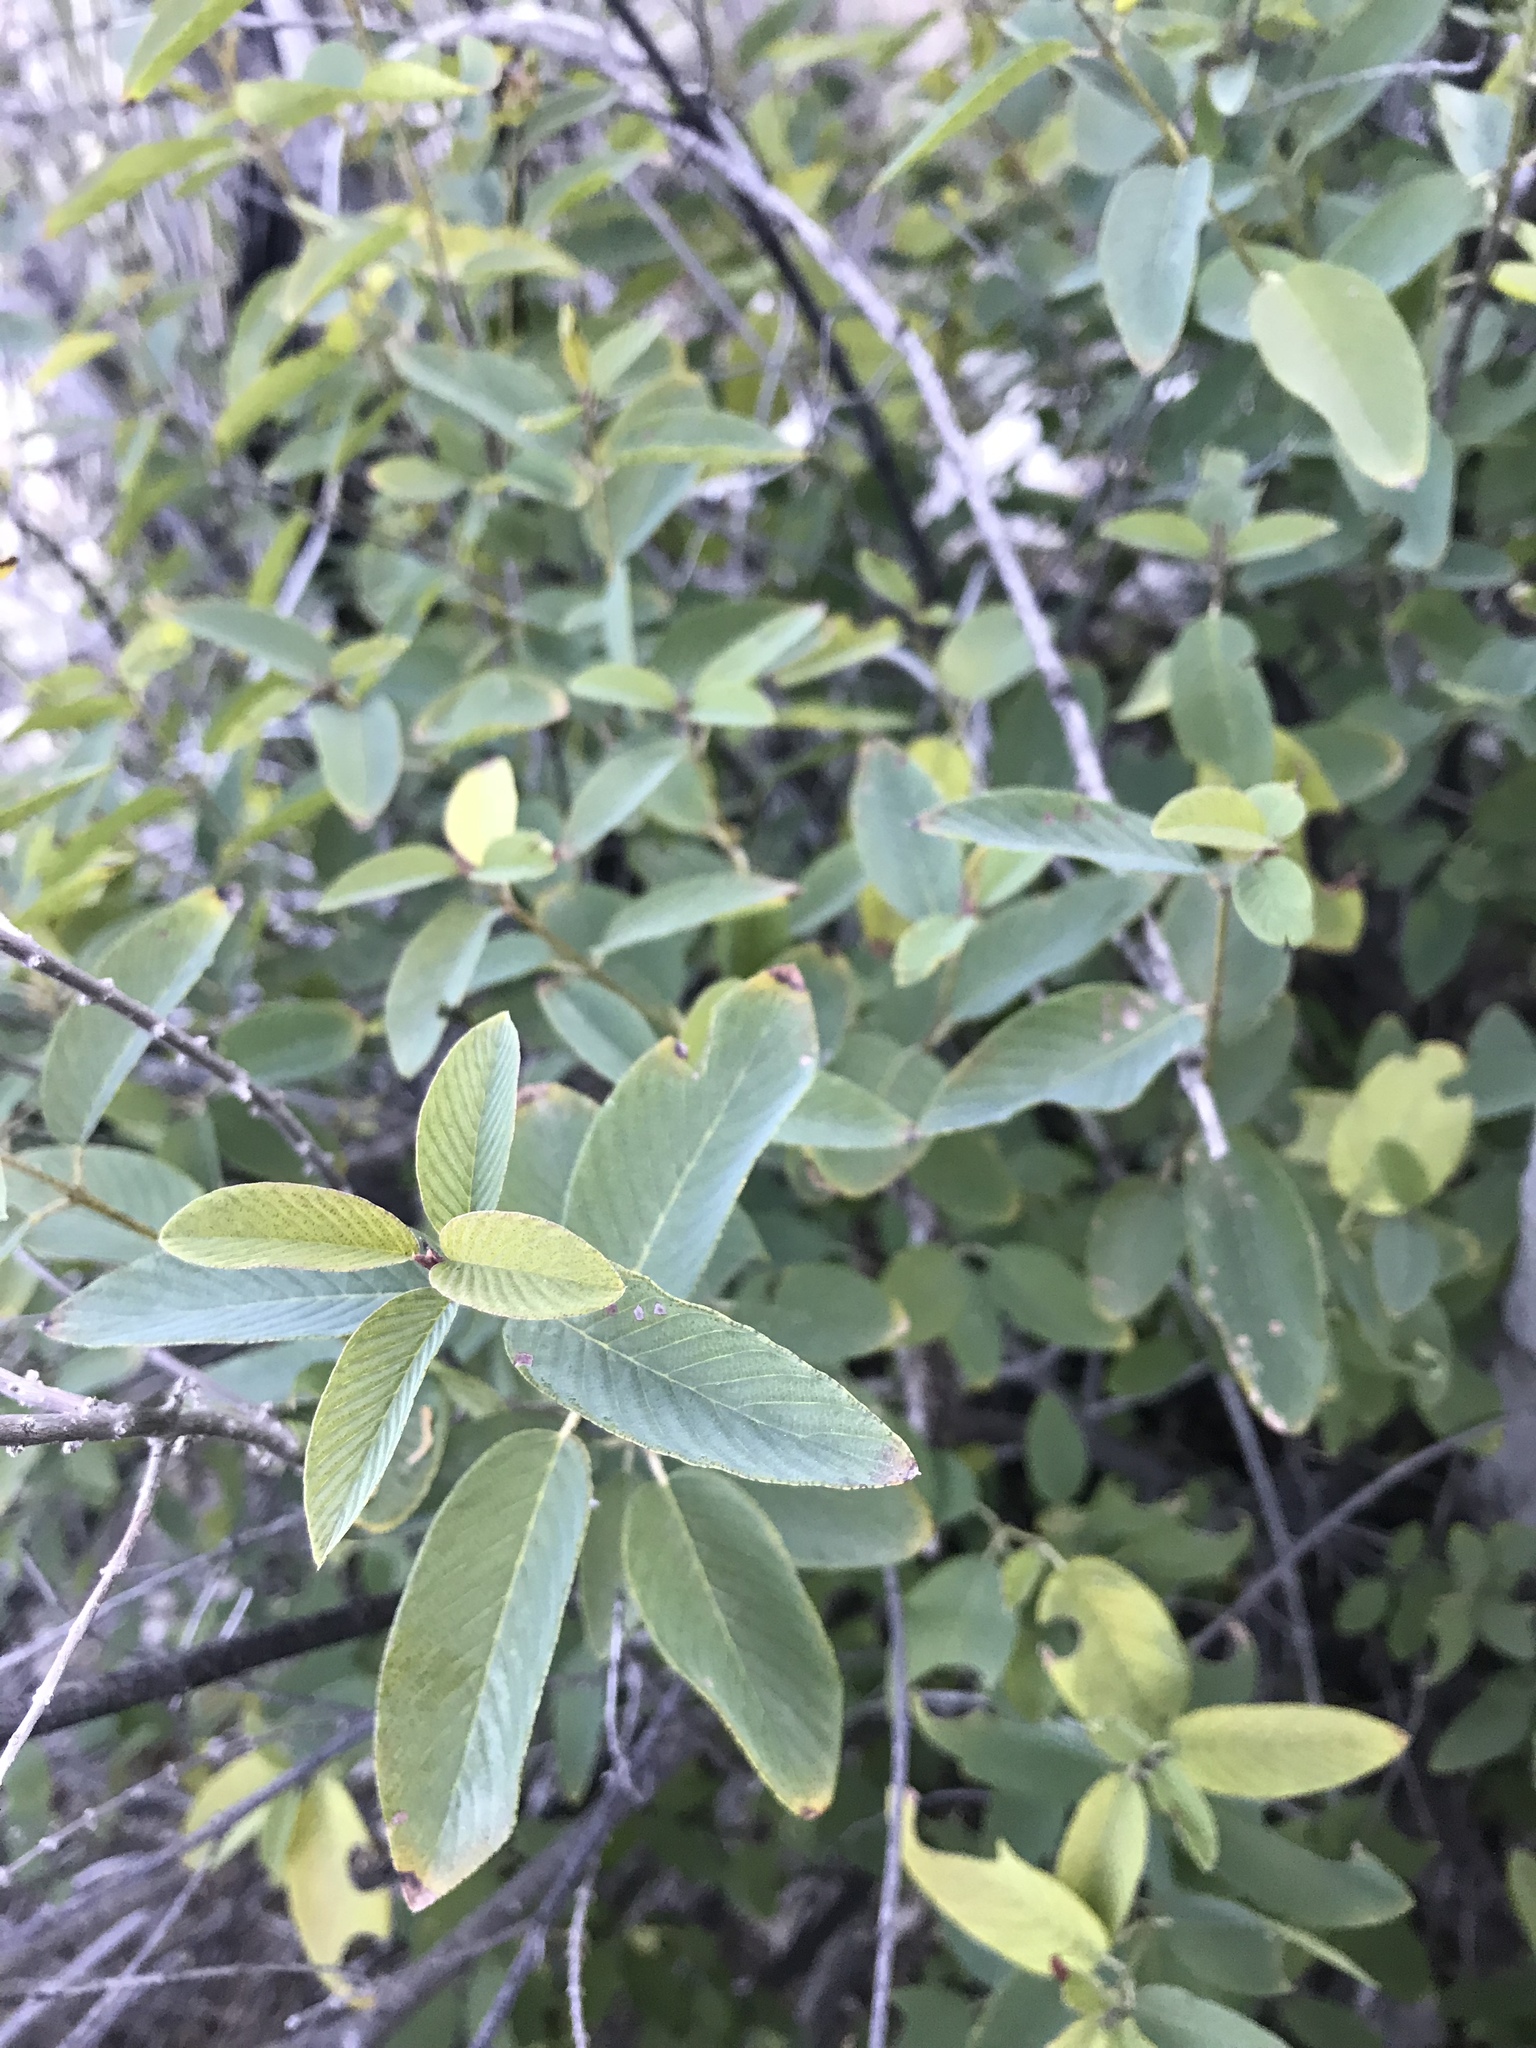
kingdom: Plantae
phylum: Tracheophyta
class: Magnoliopsida
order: Rosales
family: Rhamnaceae
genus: Karwinskia
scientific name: Karwinskia humboldtiana
